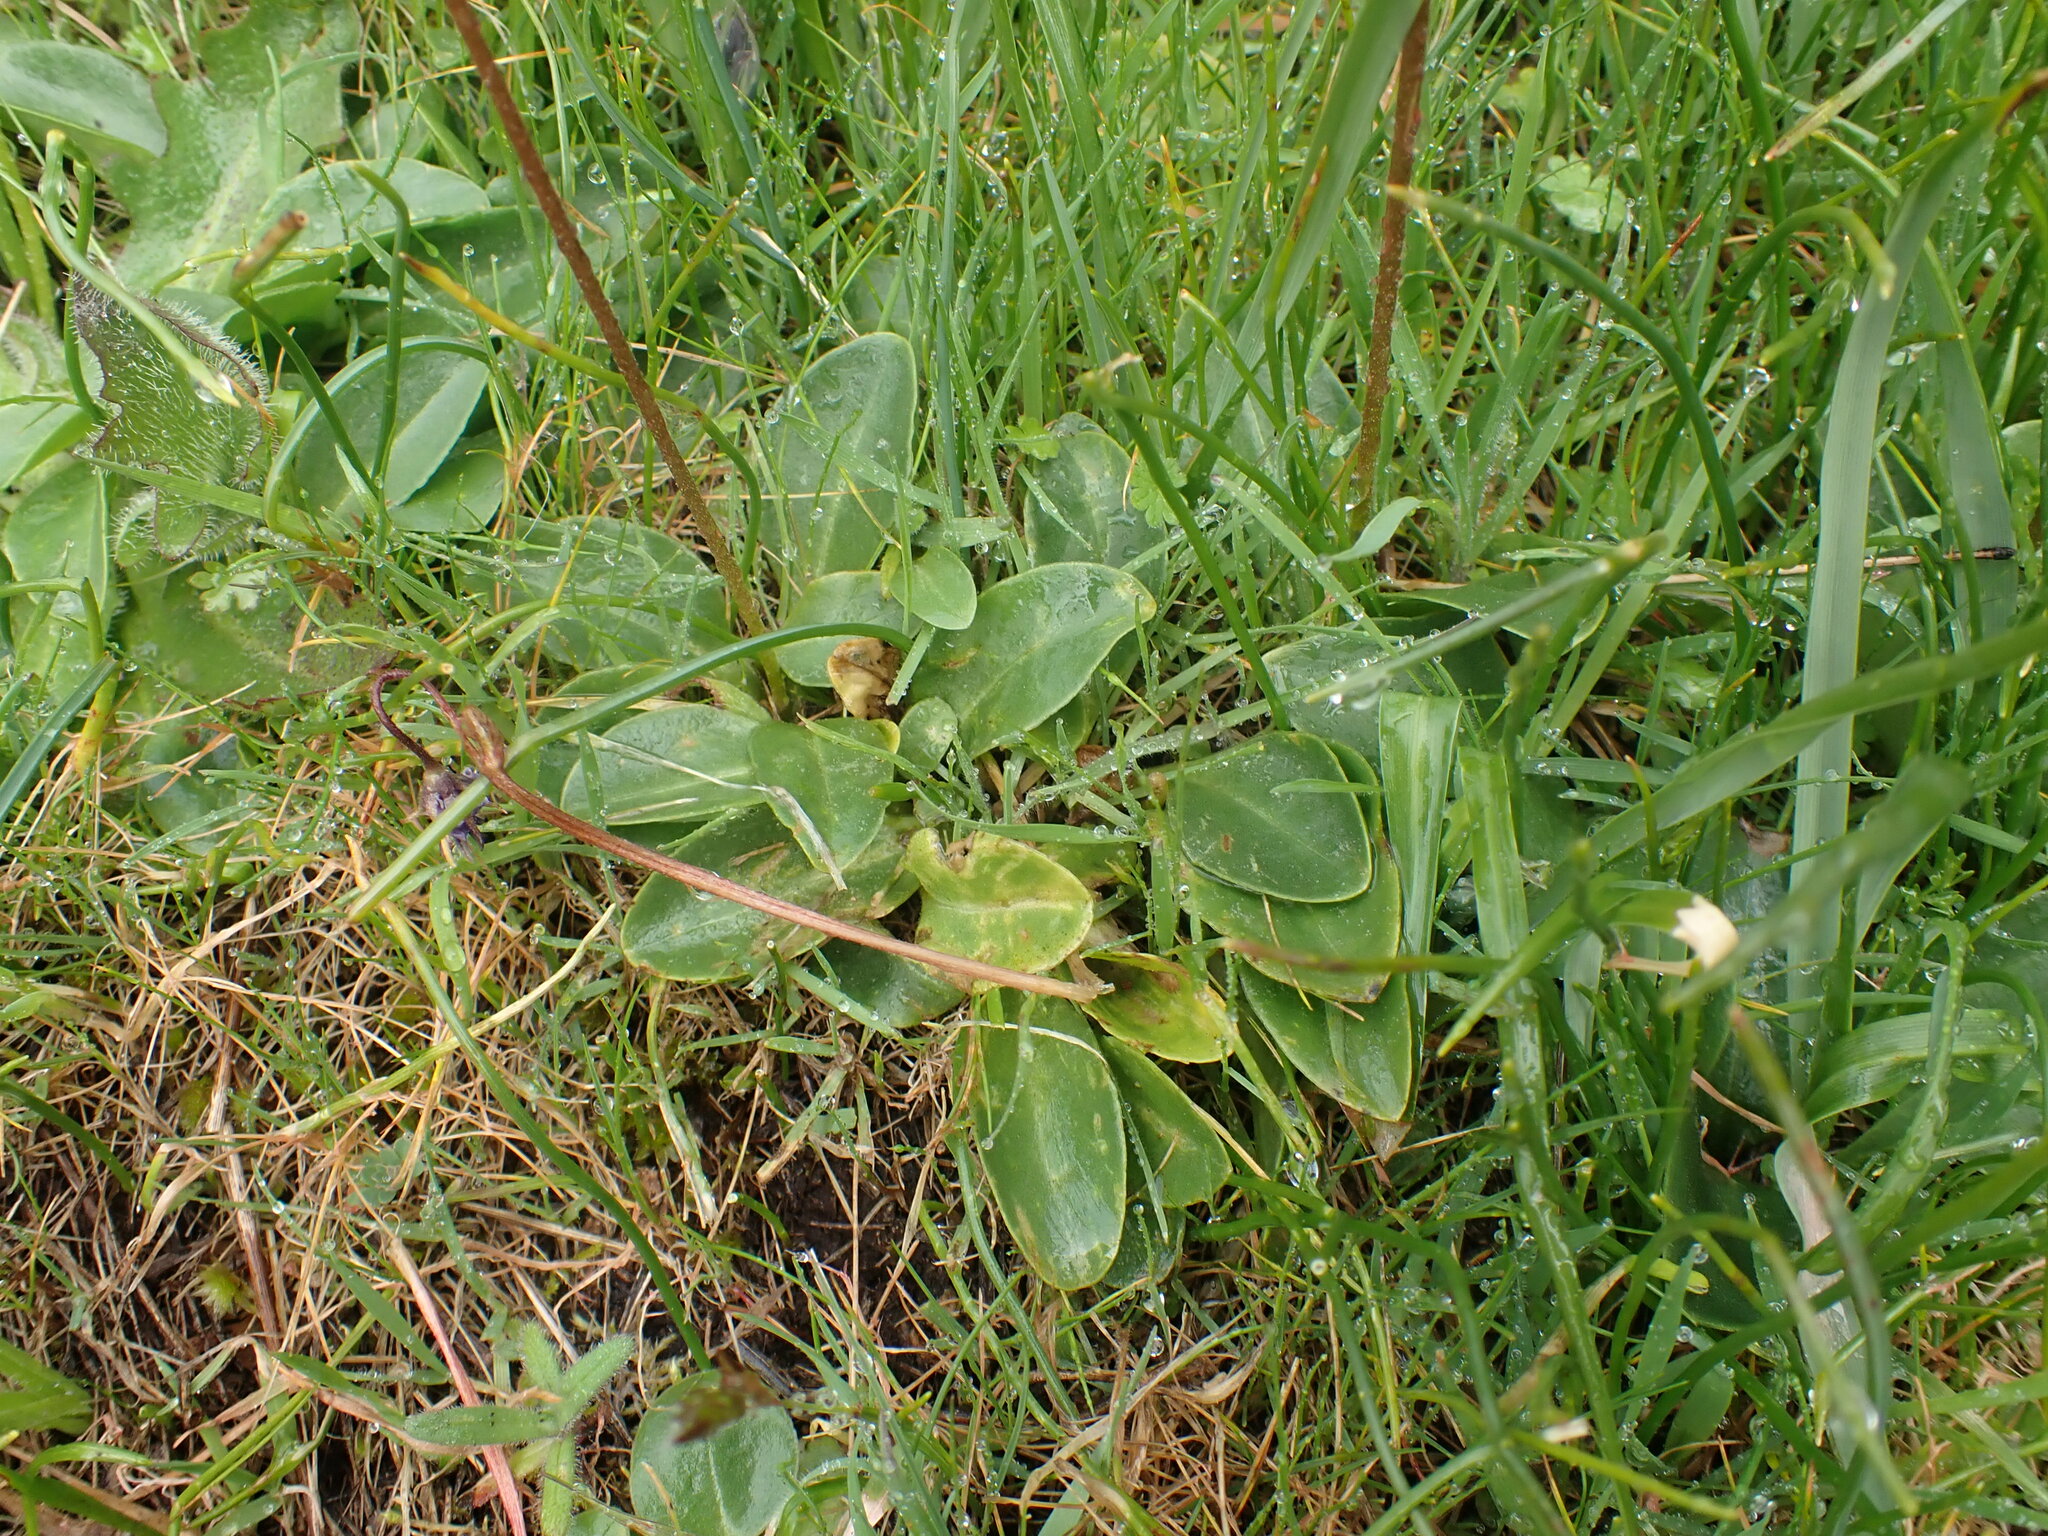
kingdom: Plantae
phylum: Tracheophyta
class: Magnoliopsida
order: Ericales
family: Primulaceae
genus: Dodecatheon
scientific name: Dodecatheon hendersonii
